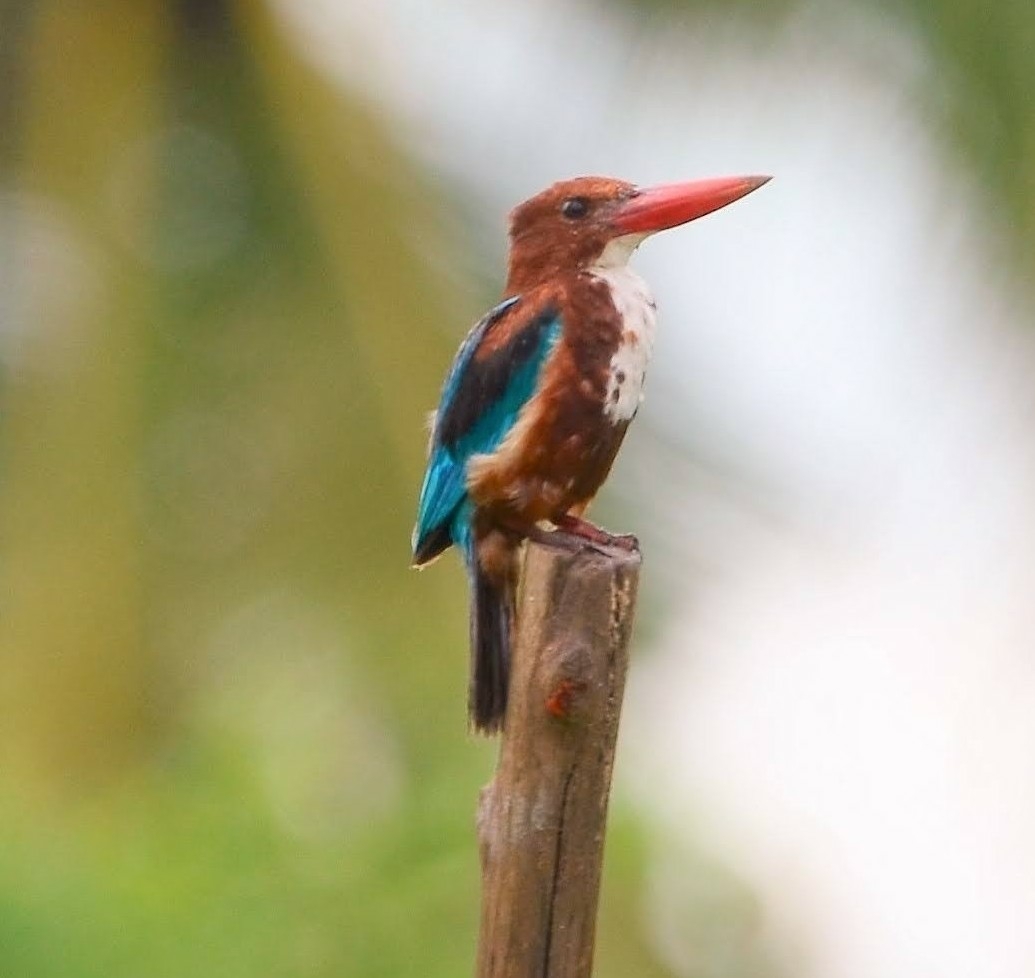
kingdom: Animalia
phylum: Chordata
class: Aves
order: Coraciiformes
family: Alcedinidae
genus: Halcyon
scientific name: Halcyon smyrnensis
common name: White-throated kingfisher
